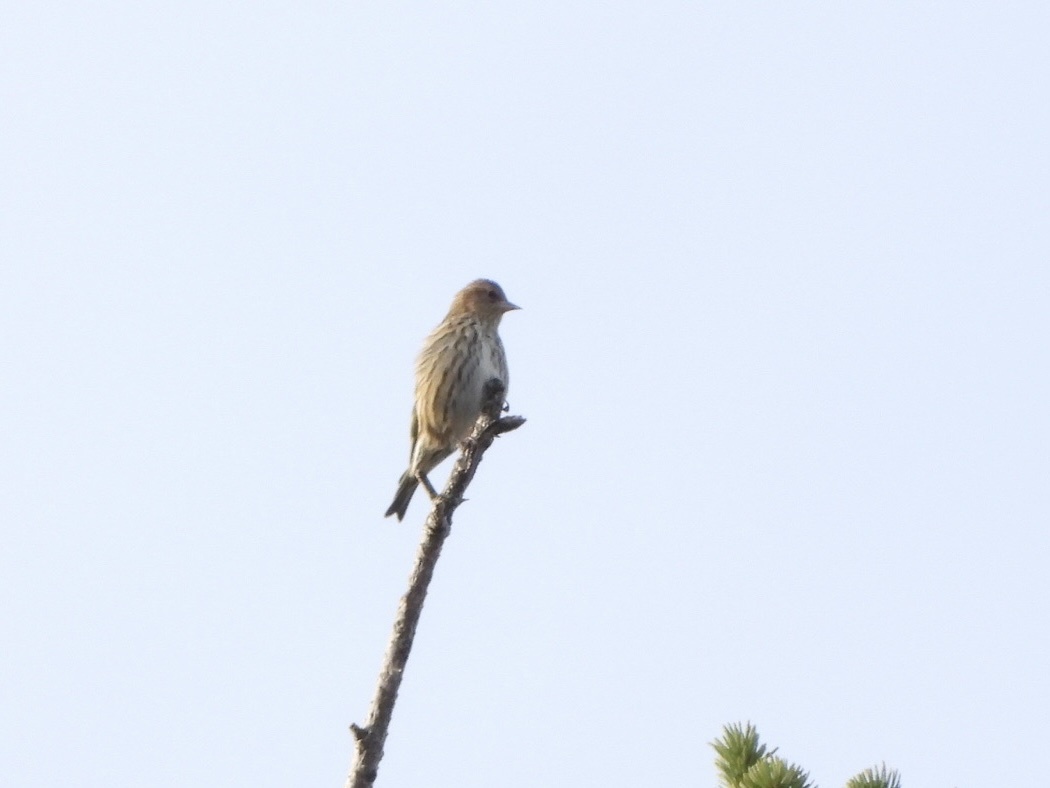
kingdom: Animalia
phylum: Chordata
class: Aves
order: Passeriformes
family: Fringillidae
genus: Spinus
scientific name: Spinus pinus
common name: Pine siskin
